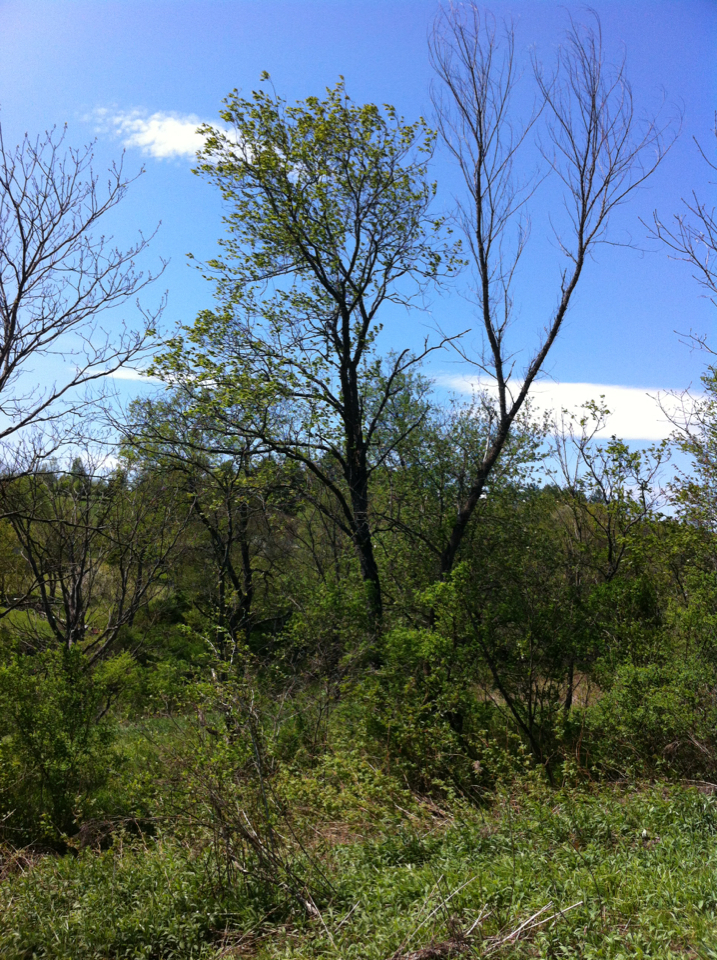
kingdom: Plantae
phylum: Tracheophyta
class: Magnoliopsida
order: Rosales
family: Rosaceae
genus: Prunus
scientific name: Prunus serotina
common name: Black cherry
